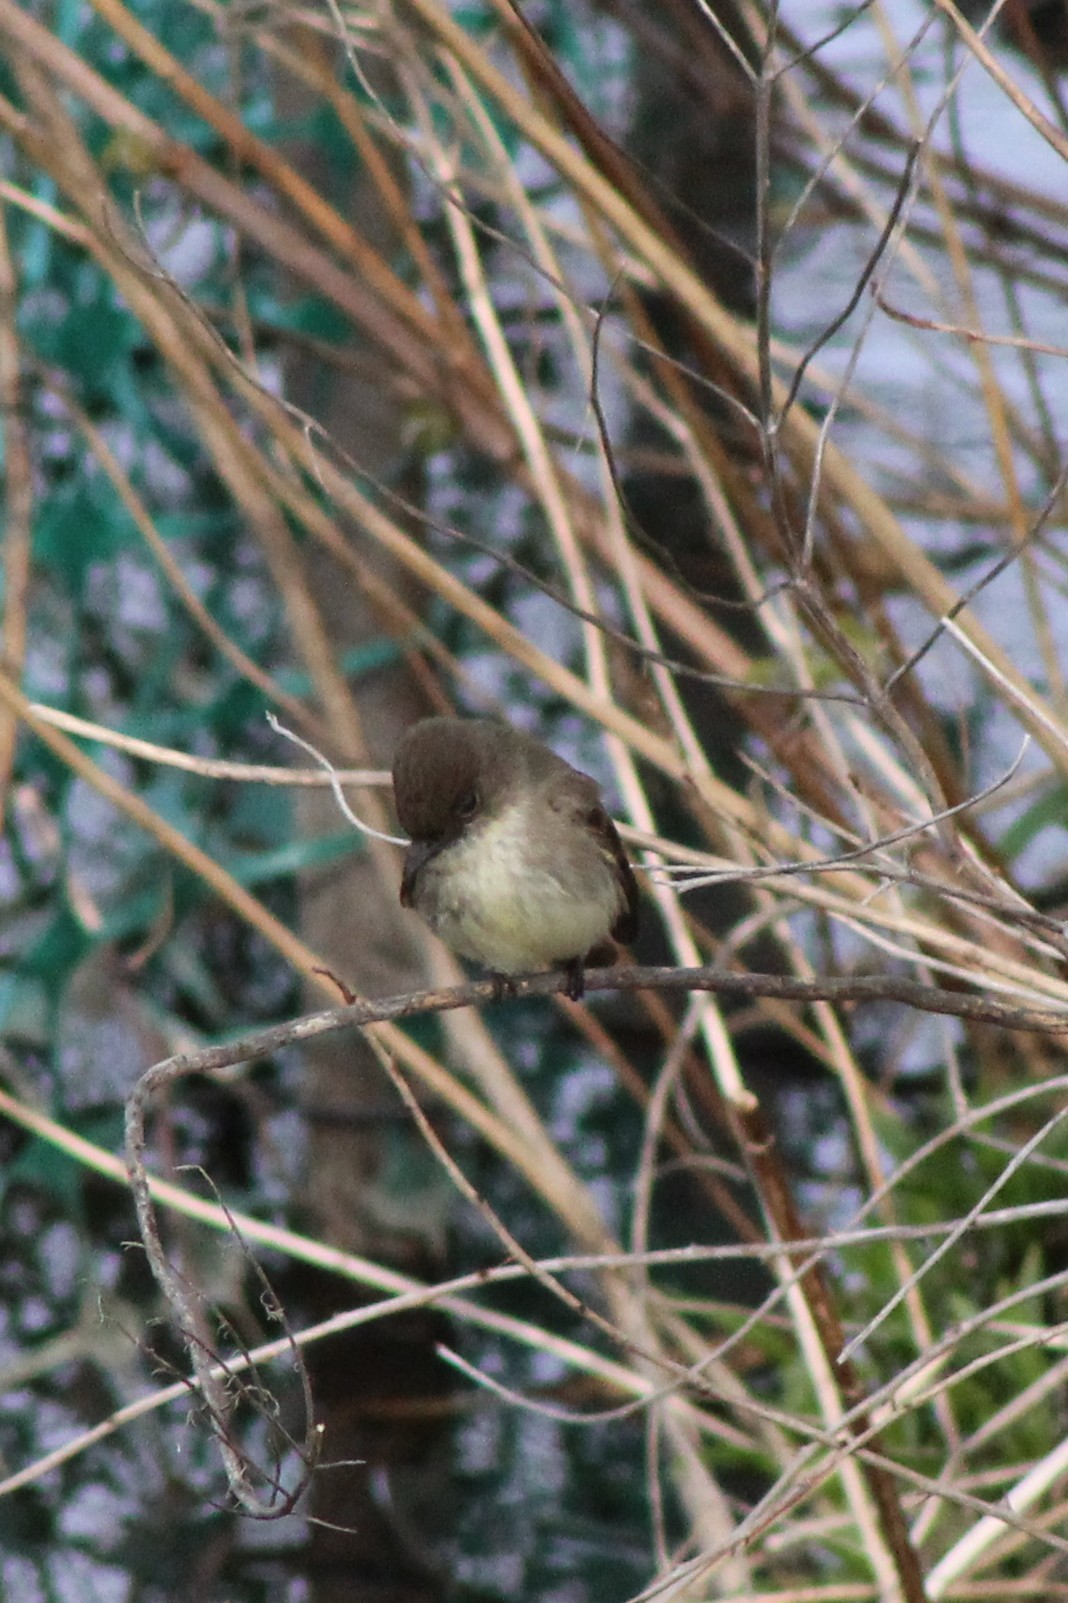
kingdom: Animalia
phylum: Chordata
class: Aves
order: Passeriformes
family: Tyrannidae
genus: Sayornis
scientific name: Sayornis phoebe
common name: Eastern phoebe
